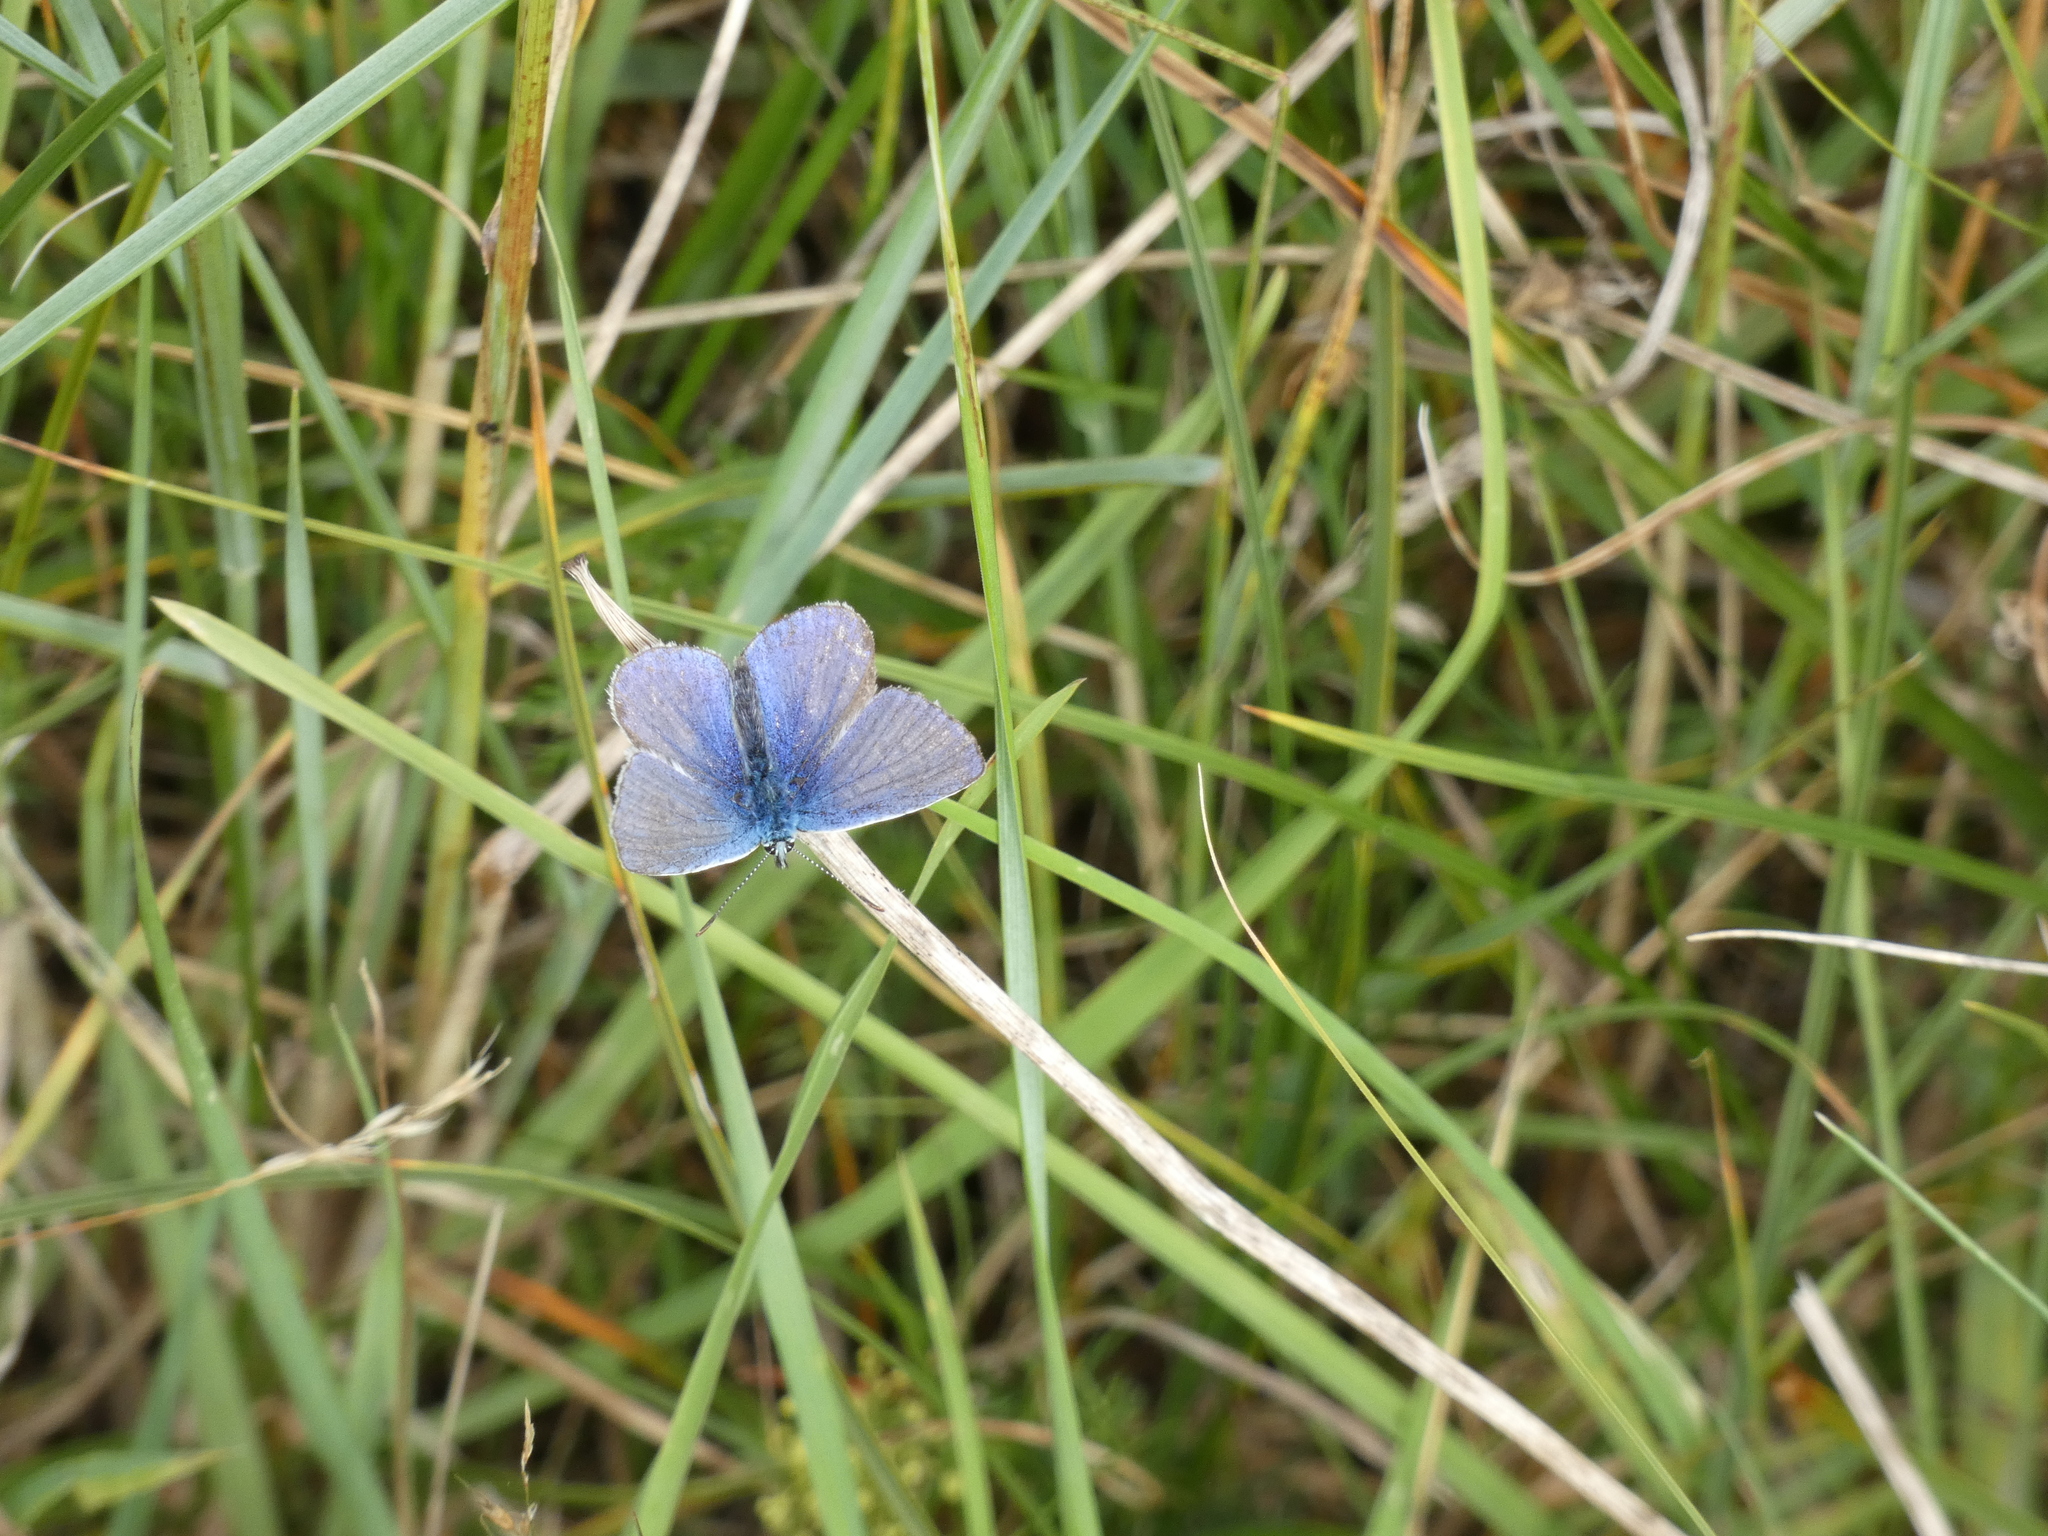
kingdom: Animalia
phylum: Arthropoda
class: Insecta
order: Lepidoptera
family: Lycaenidae
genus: Polyommatus
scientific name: Polyommatus icarus
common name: Common blue
